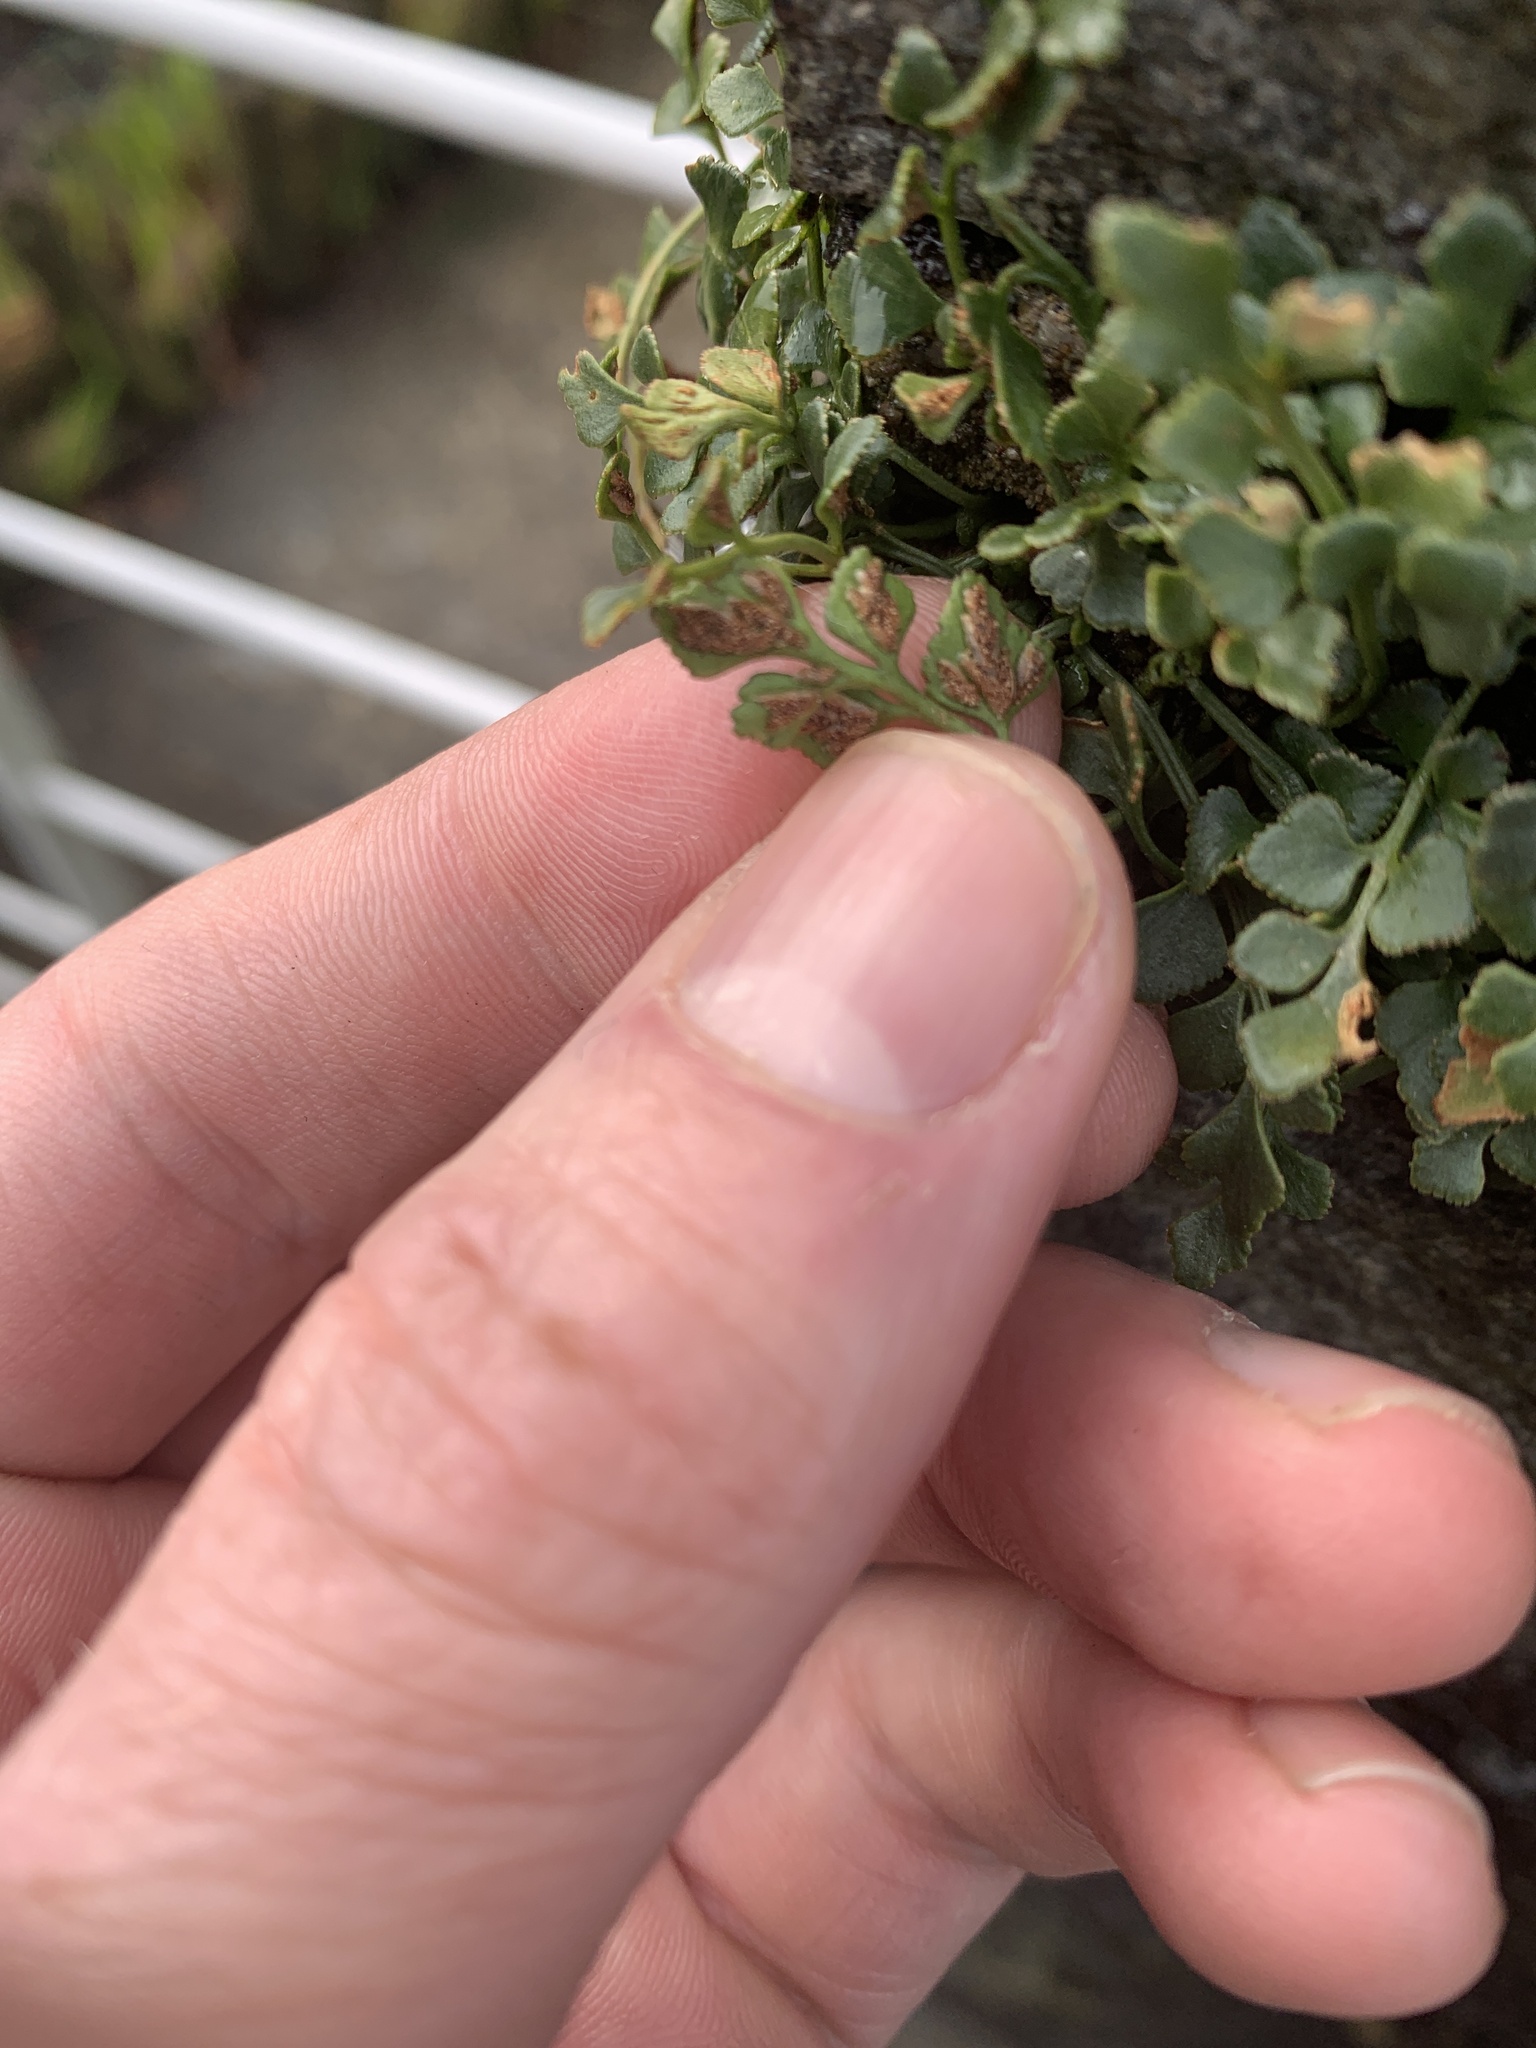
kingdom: Plantae
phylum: Tracheophyta
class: Polypodiopsida
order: Polypodiales
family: Aspleniaceae
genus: Asplenium
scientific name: Asplenium ruta-muraria
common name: Wall-rue
